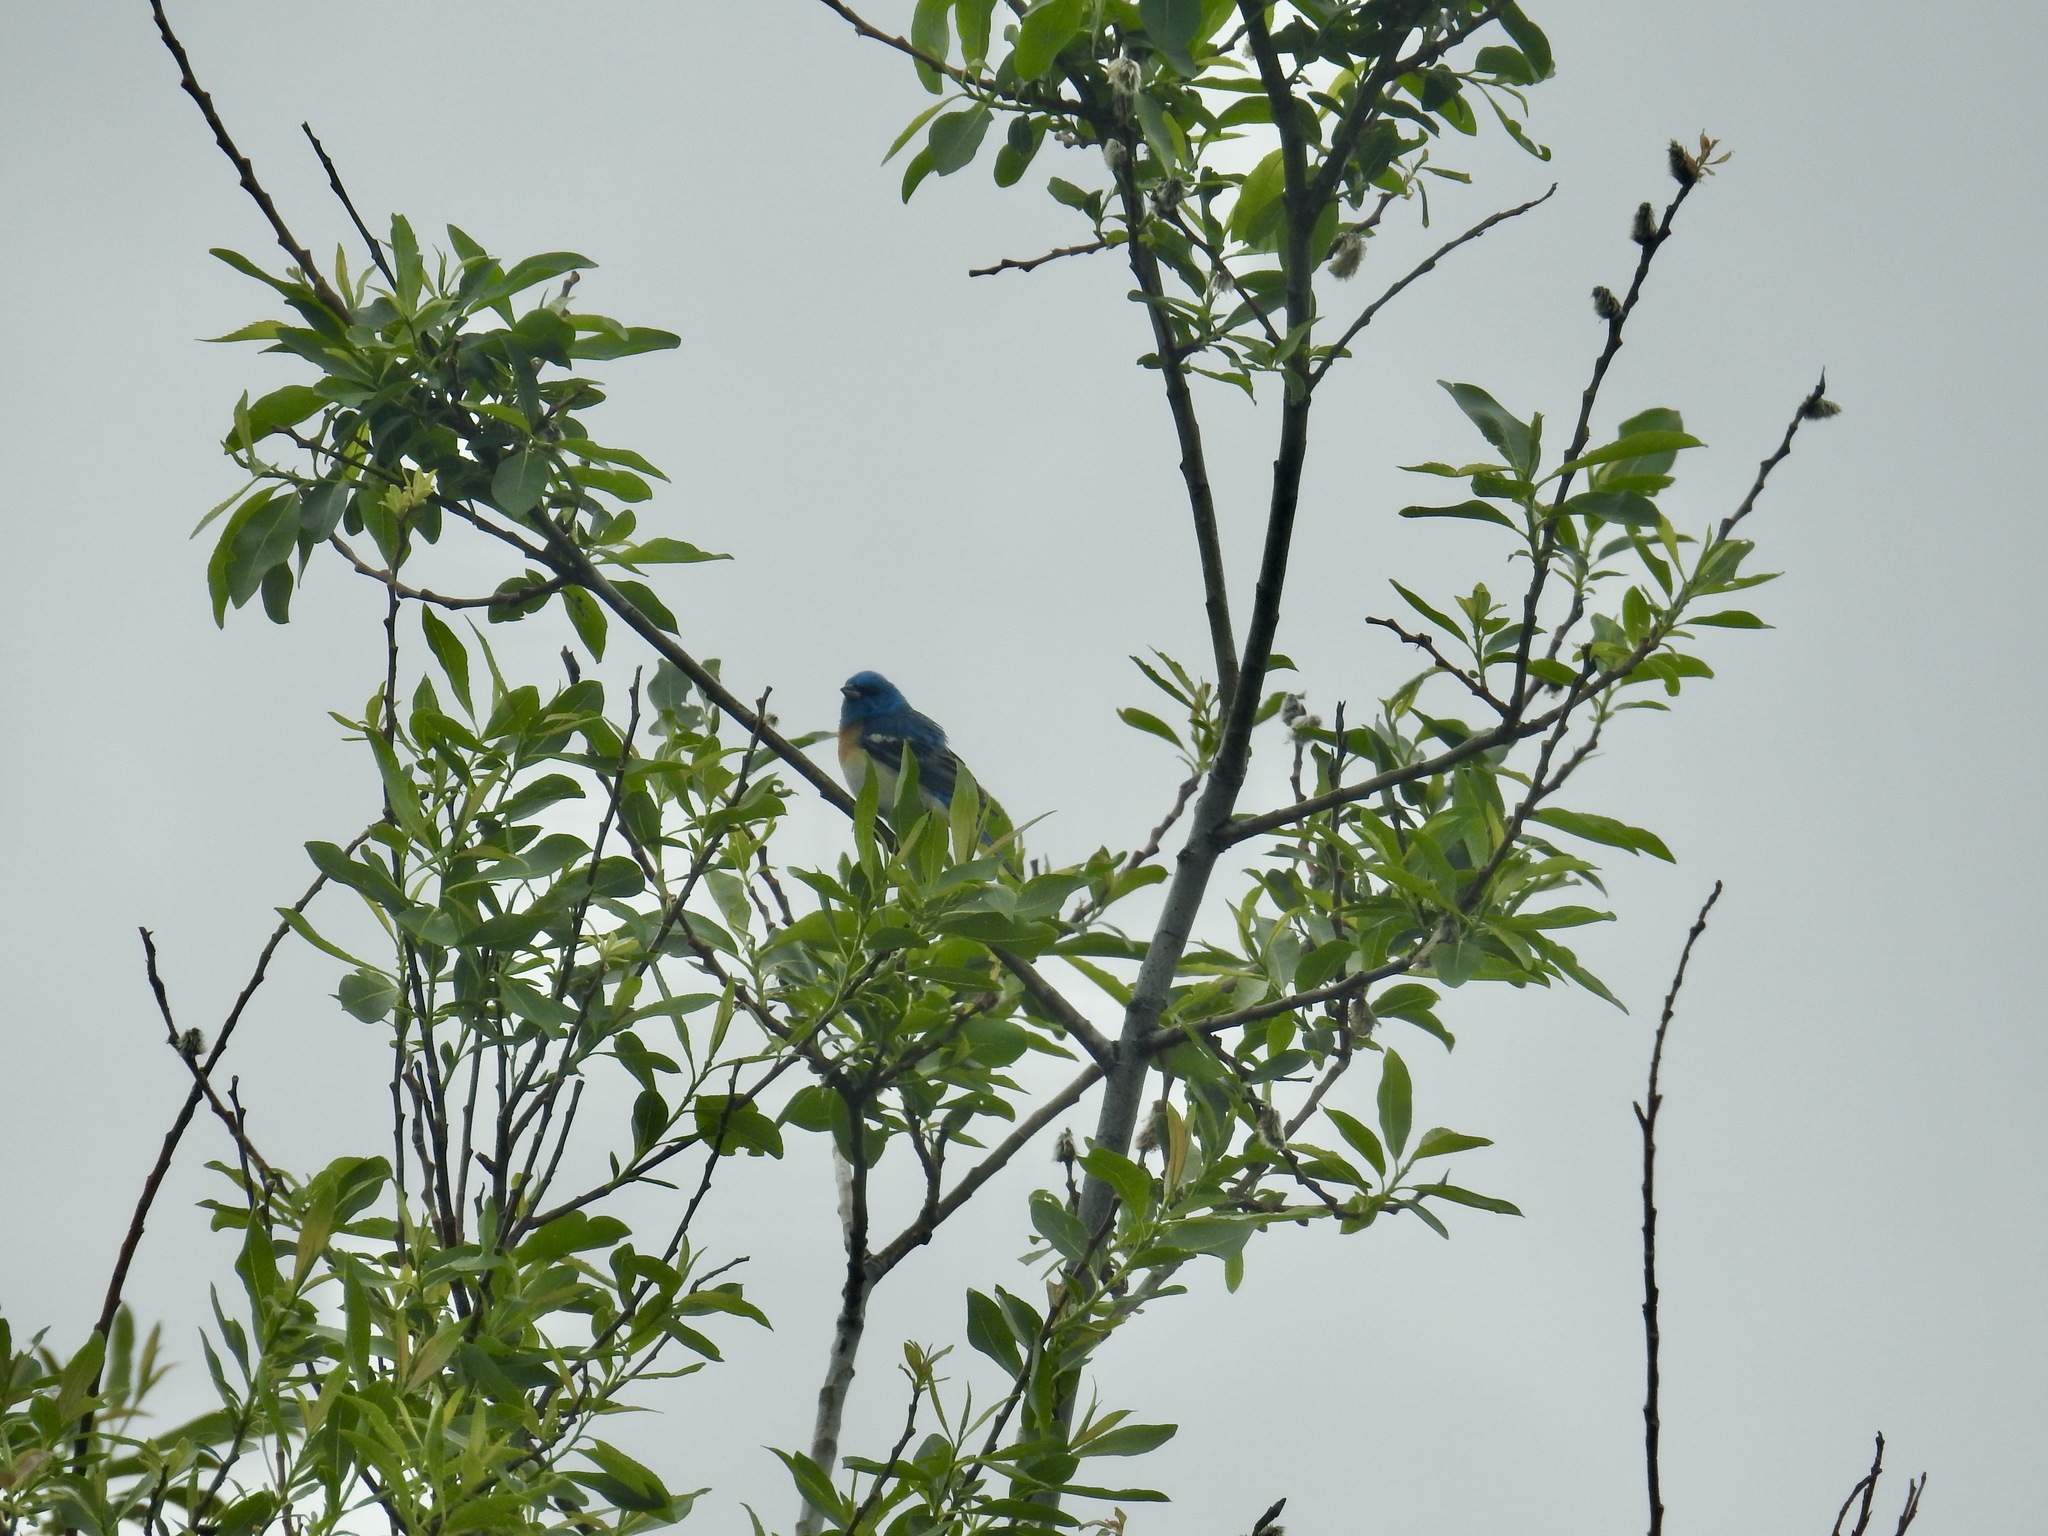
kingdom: Animalia
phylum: Chordata
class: Aves
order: Passeriformes
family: Cardinalidae
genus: Passerina
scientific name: Passerina amoena
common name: Lazuli bunting
